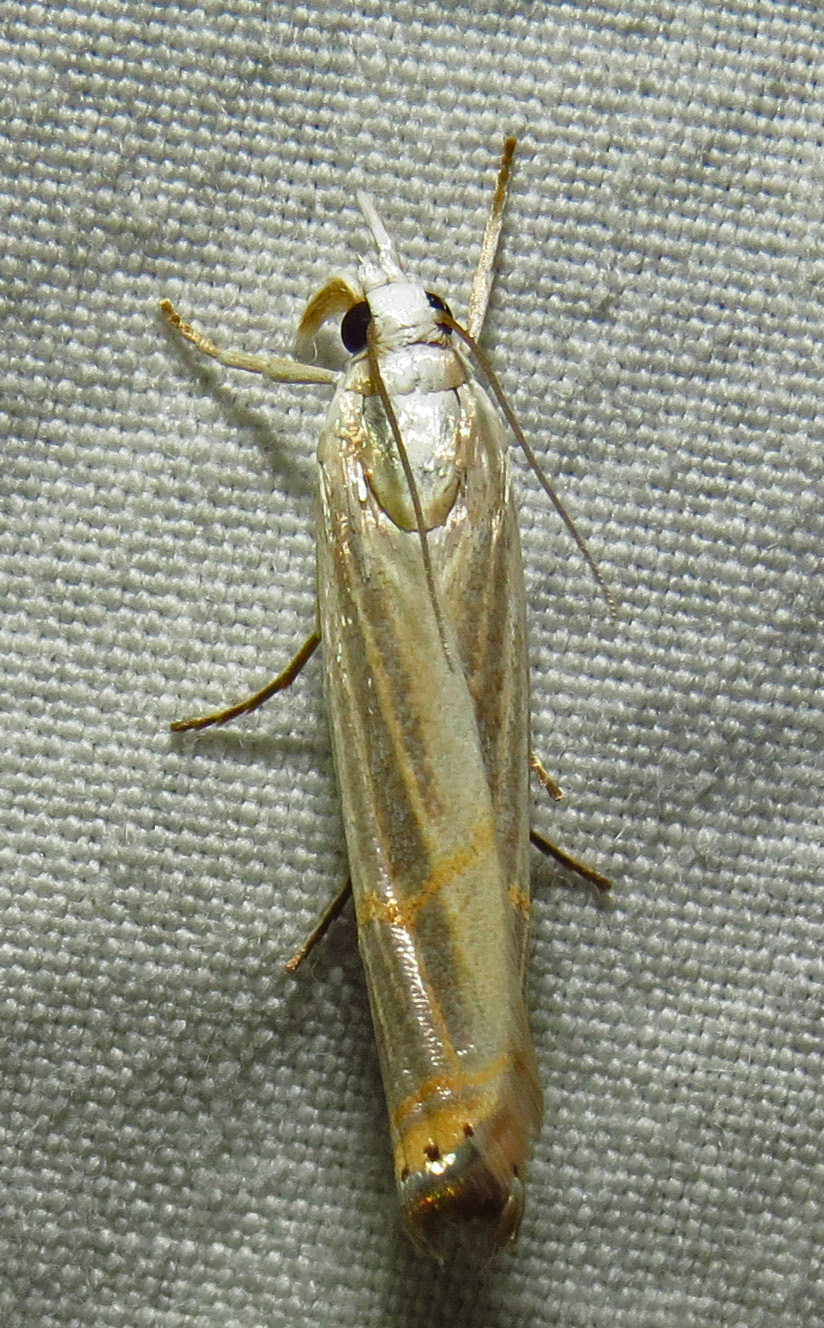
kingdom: Animalia
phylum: Arthropoda
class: Insecta
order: Lepidoptera
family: Crambidae
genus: Parapediasia
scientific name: Parapediasia decorellus
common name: Graceful grass-veneer
